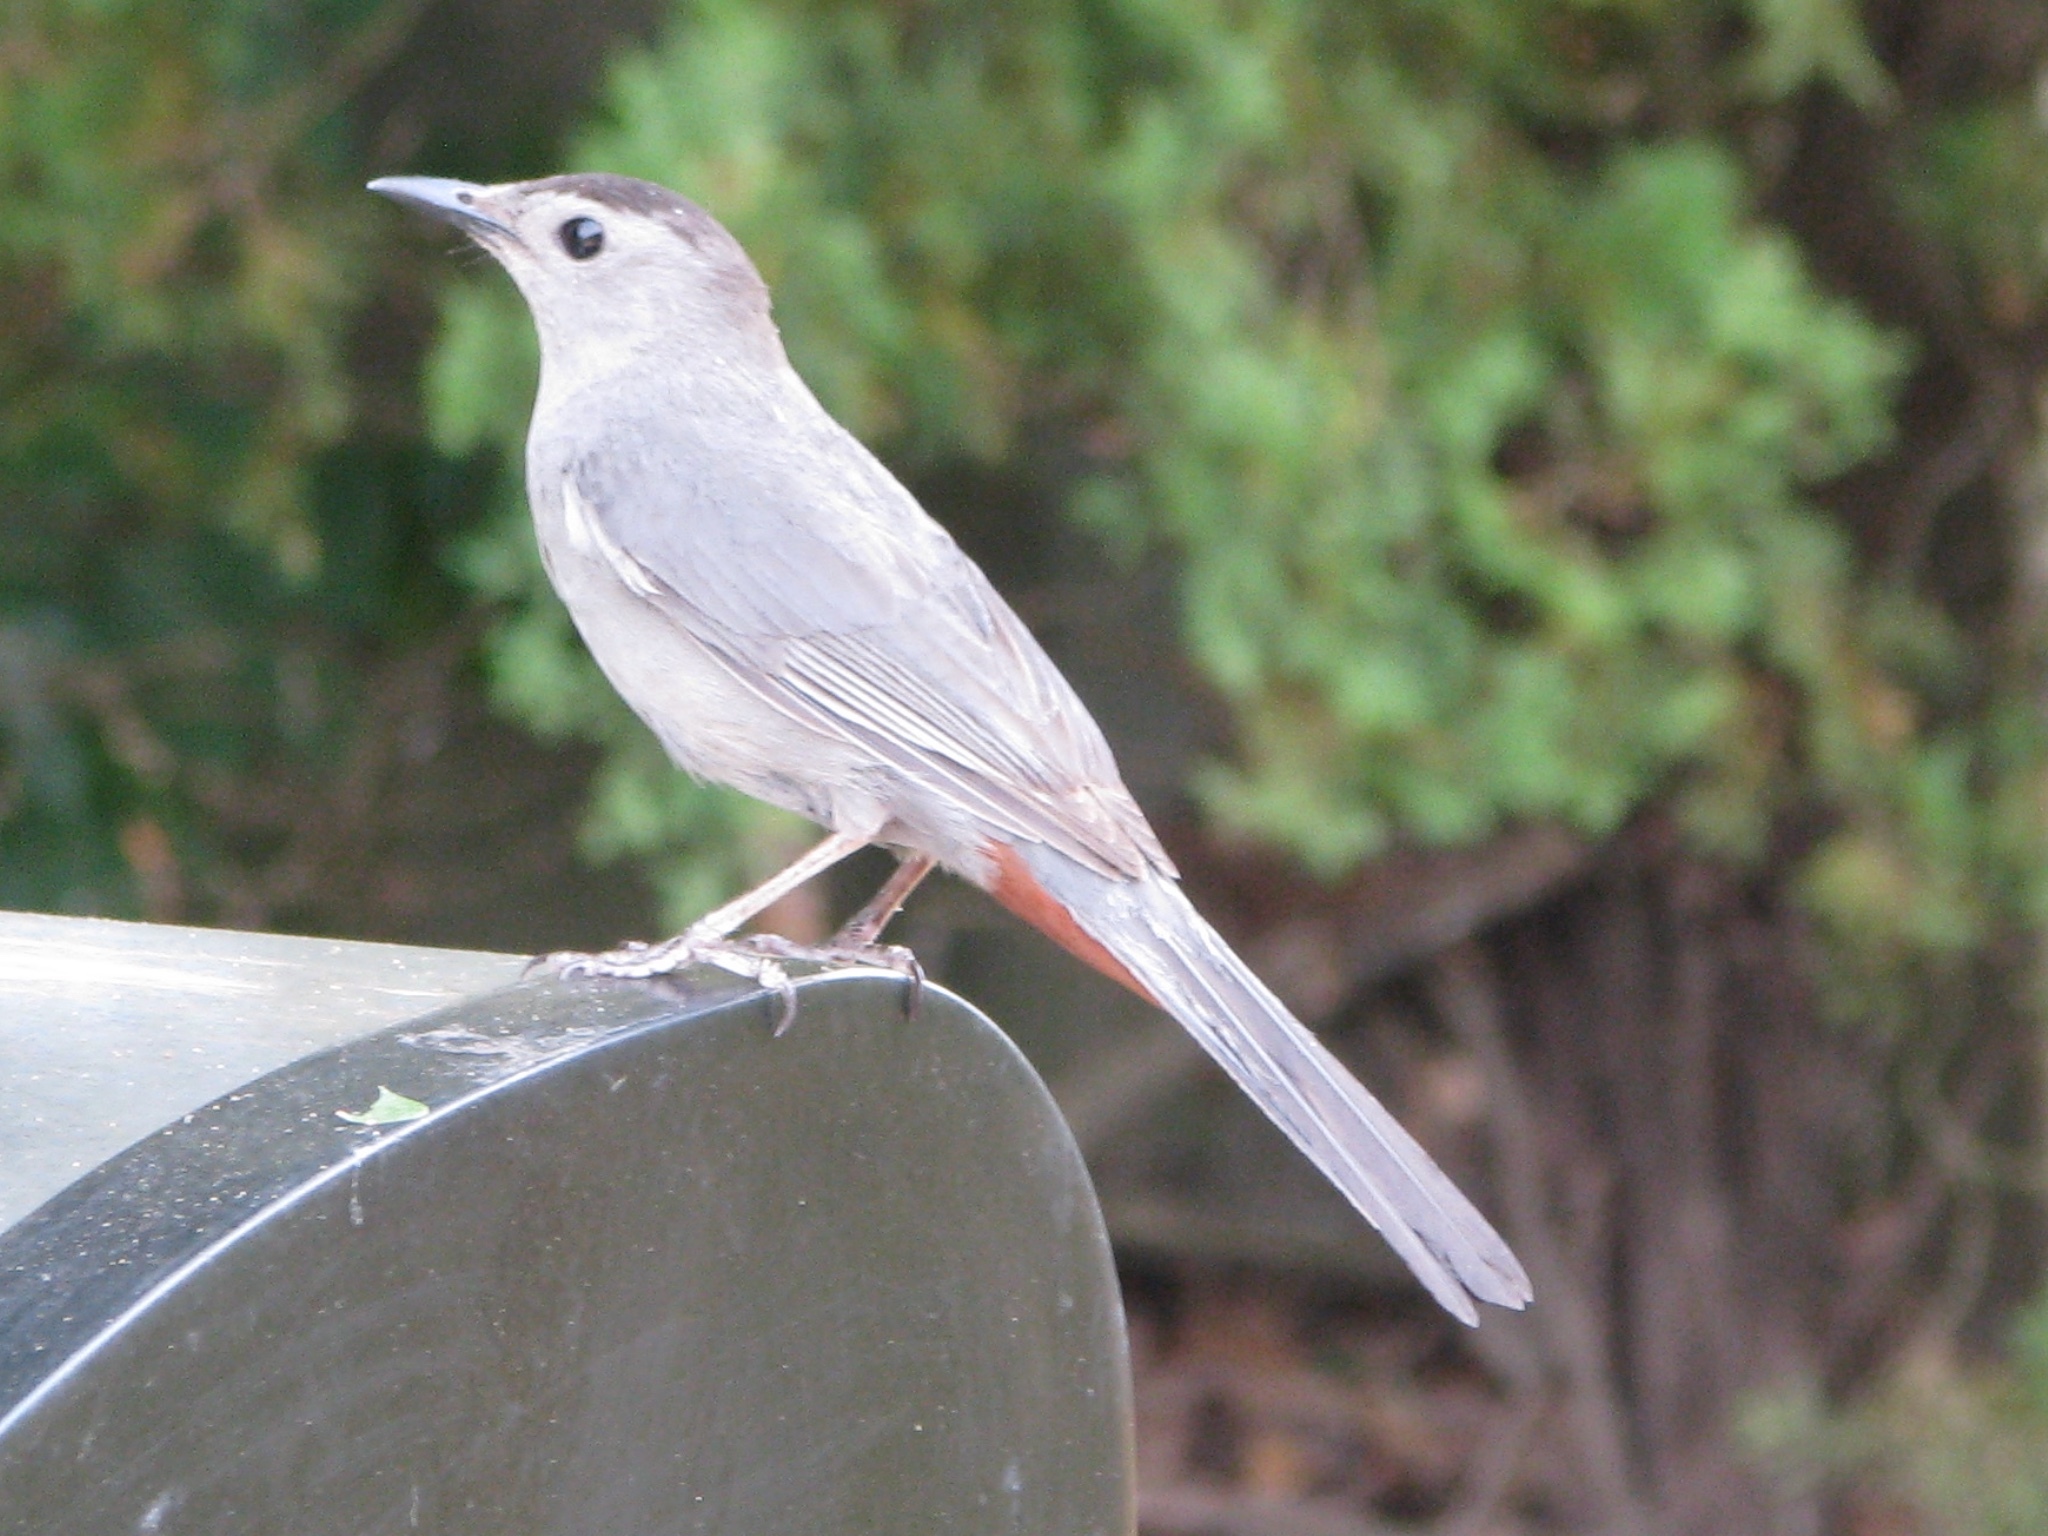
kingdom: Animalia
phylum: Chordata
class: Aves
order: Passeriformes
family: Mimidae
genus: Dumetella
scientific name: Dumetella carolinensis
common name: Gray catbird
